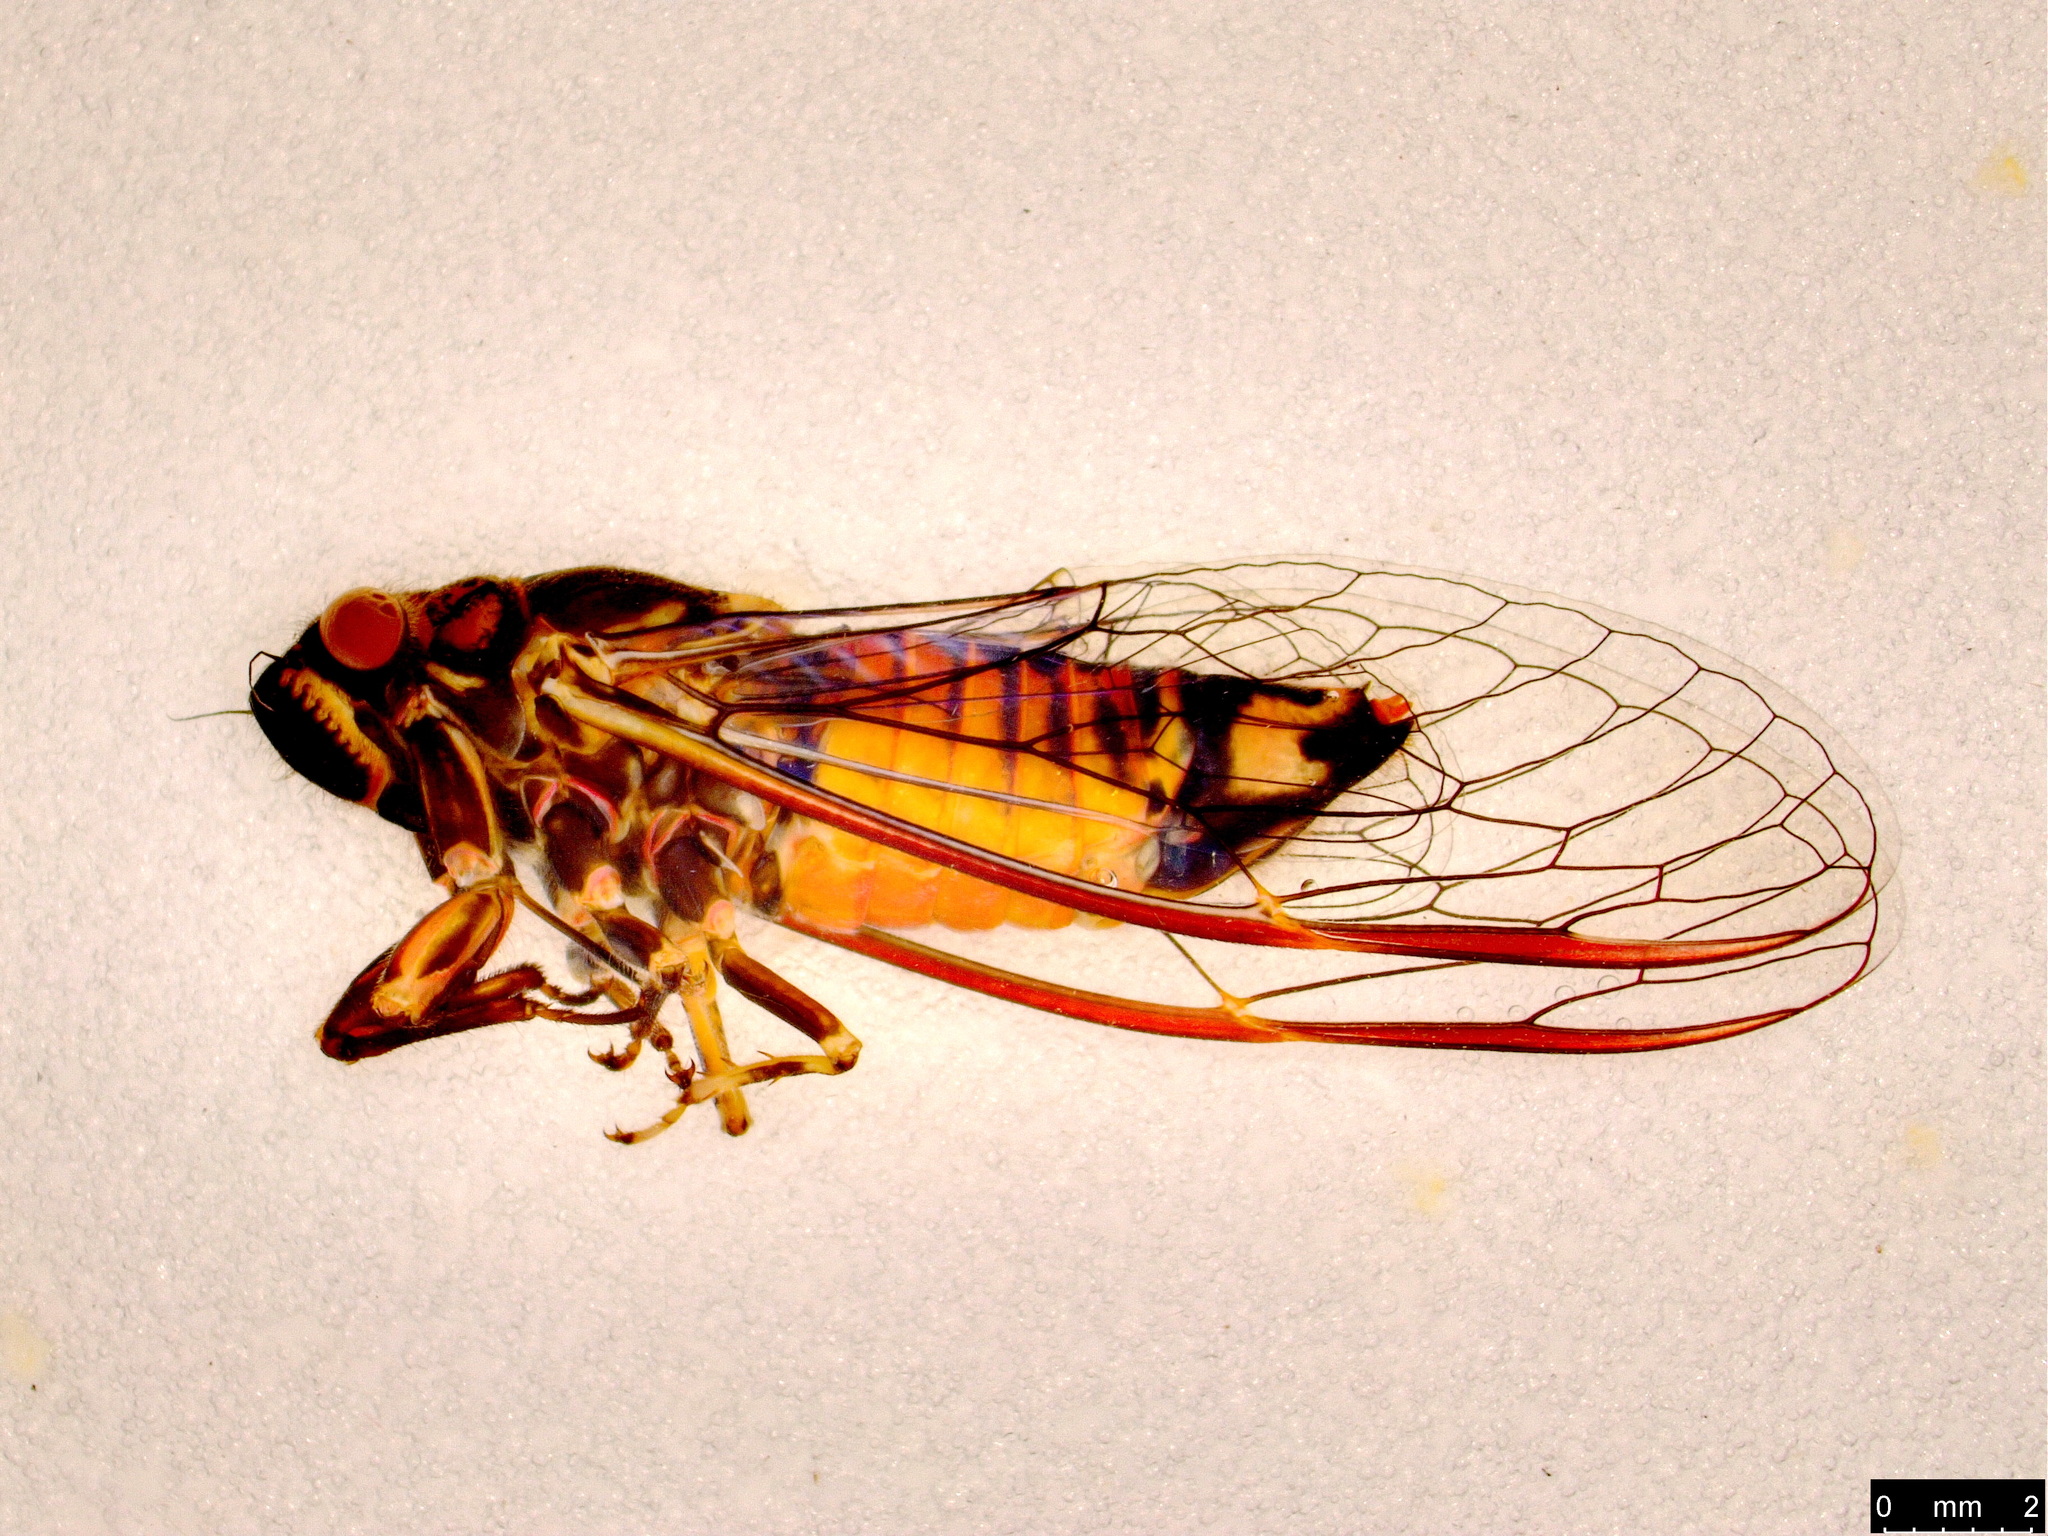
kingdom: Animalia
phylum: Arthropoda
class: Insecta
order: Hemiptera
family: Cicadidae
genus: Yoyetta
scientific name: Yoyetta robertsonae
